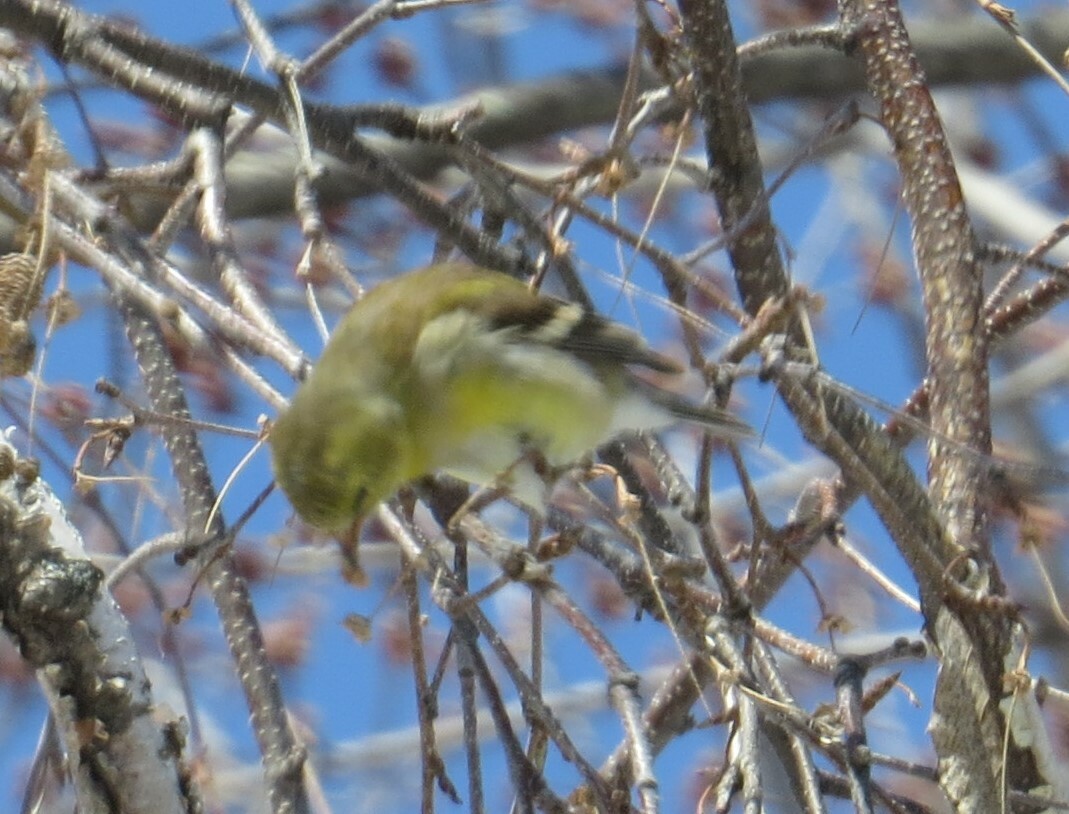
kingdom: Animalia
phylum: Chordata
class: Aves
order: Passeriformes
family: Fringillidae
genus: Spinus
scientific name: Spinus tristis
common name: American goldfinch
